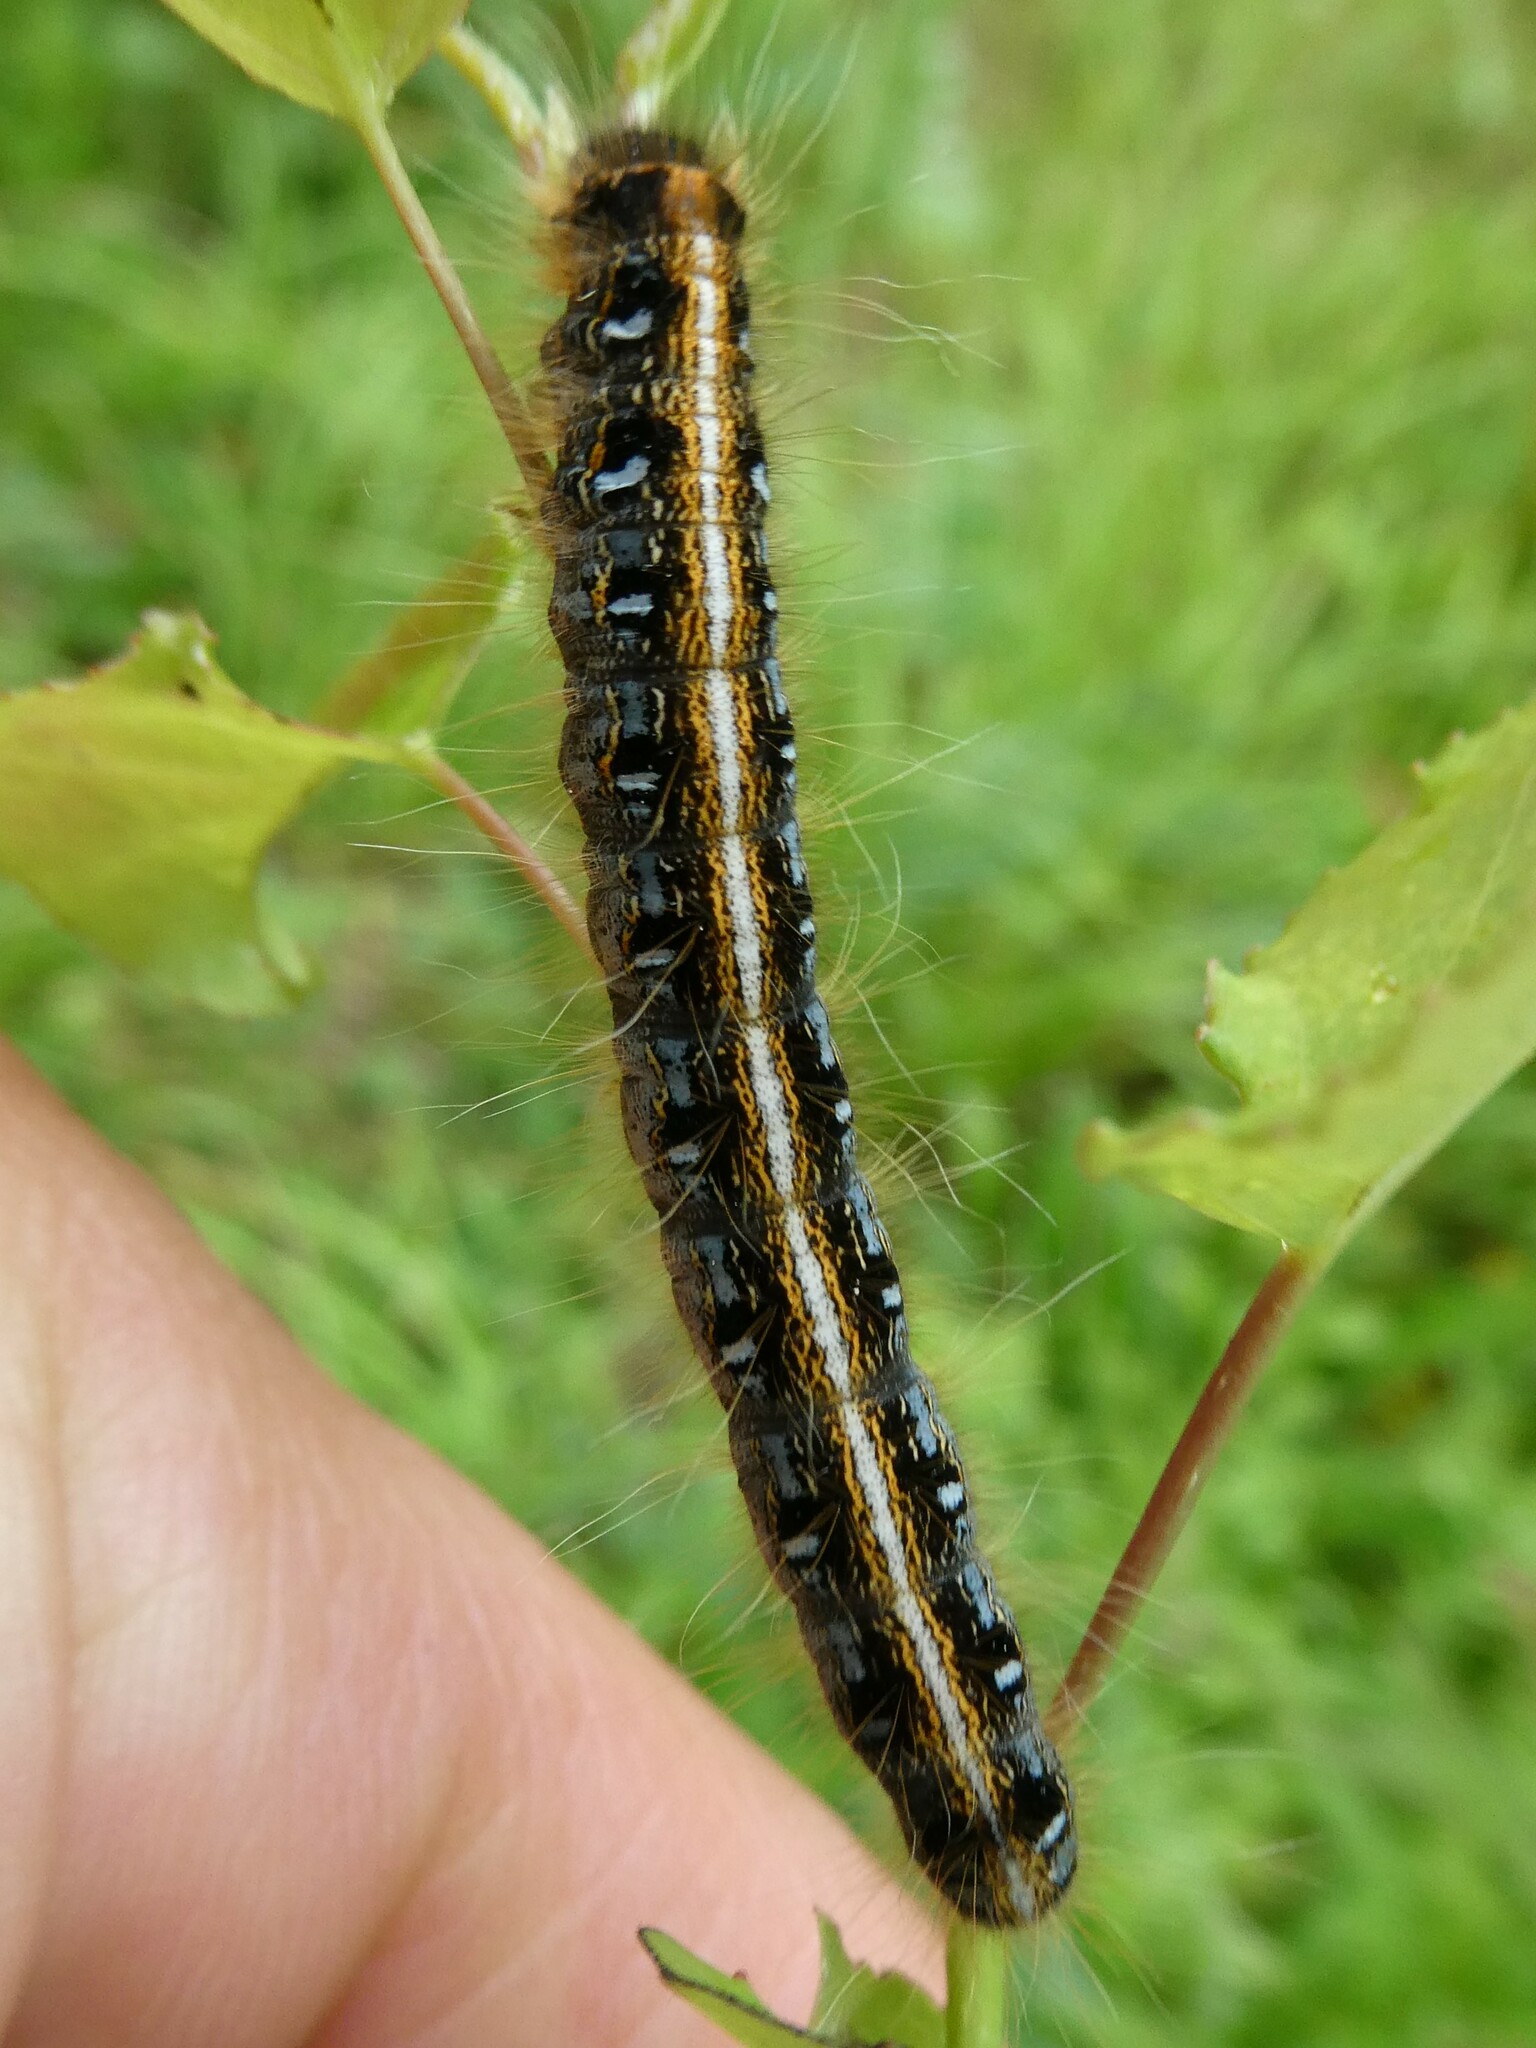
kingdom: Animalia
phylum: Arthropoda
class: Insecta
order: Lepidoptera
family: Lasiocampidae
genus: Malacosoma
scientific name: Malacosoma americana
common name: Eastern tent caterpillar moth
